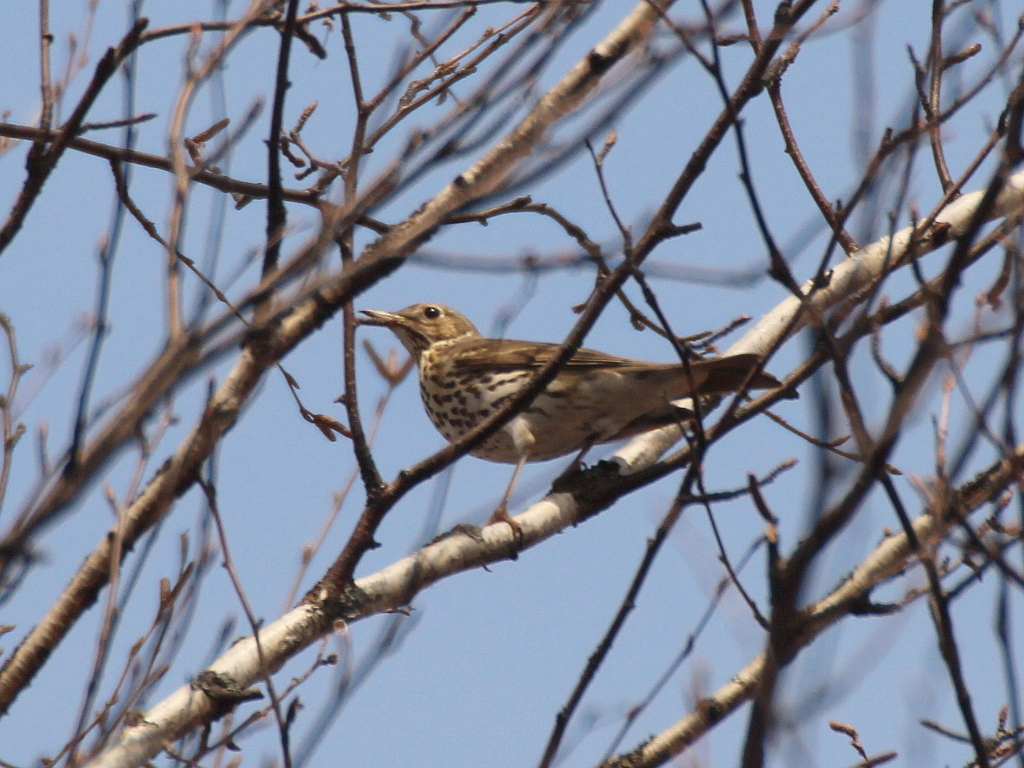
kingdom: Animalia
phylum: Chordata
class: Aves
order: Passeriformes
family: Turdidae
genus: Turdus
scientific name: Turdus philomelos
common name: Song thrush
